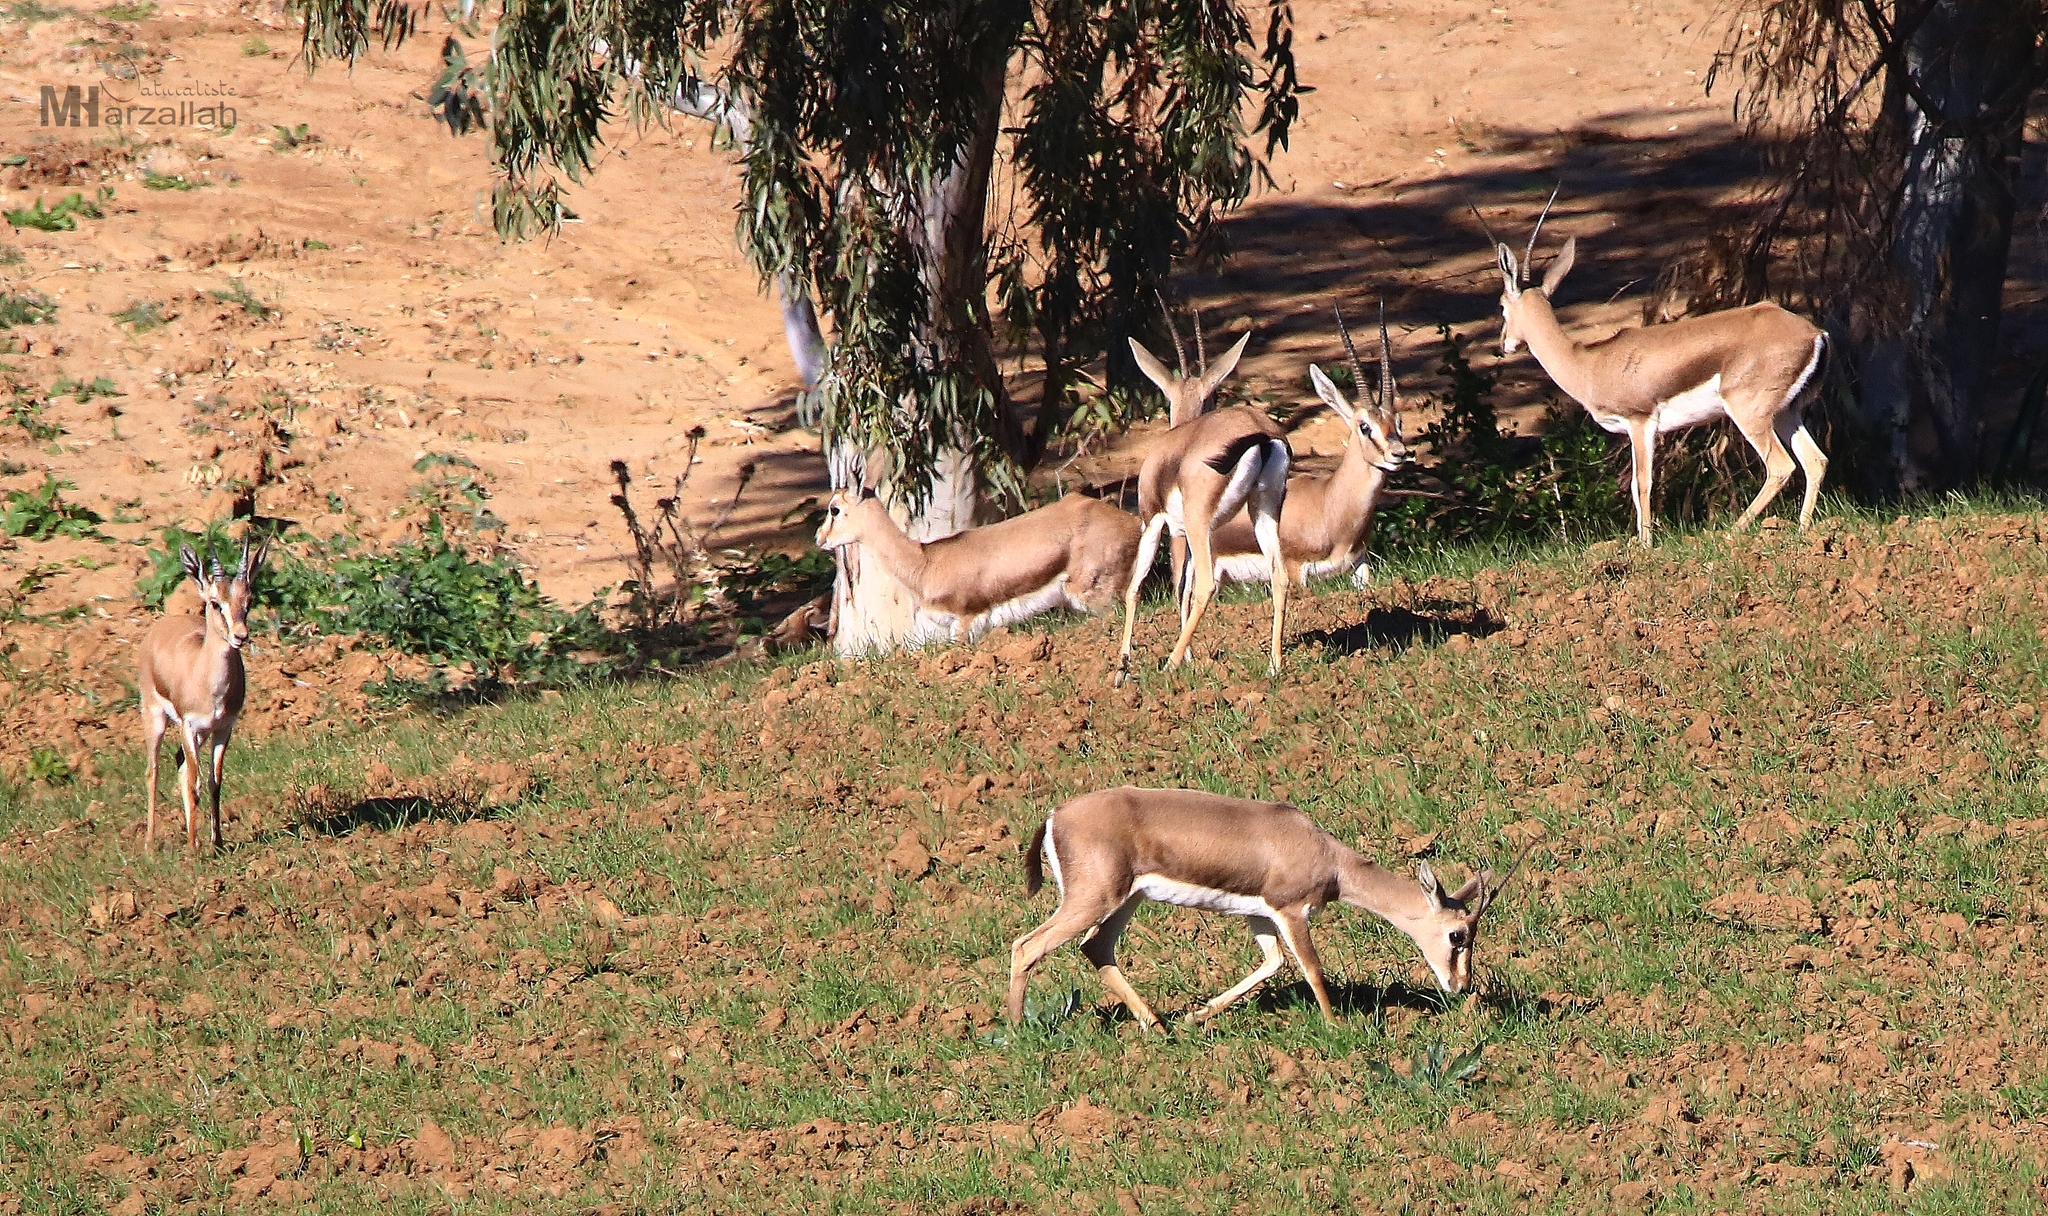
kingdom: Animalia
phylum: Chordata
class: Mammalia
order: Artiodactyla
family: Bovidae
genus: Gazella
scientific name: Gazella cuvieri
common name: Cuvier's gazelle
